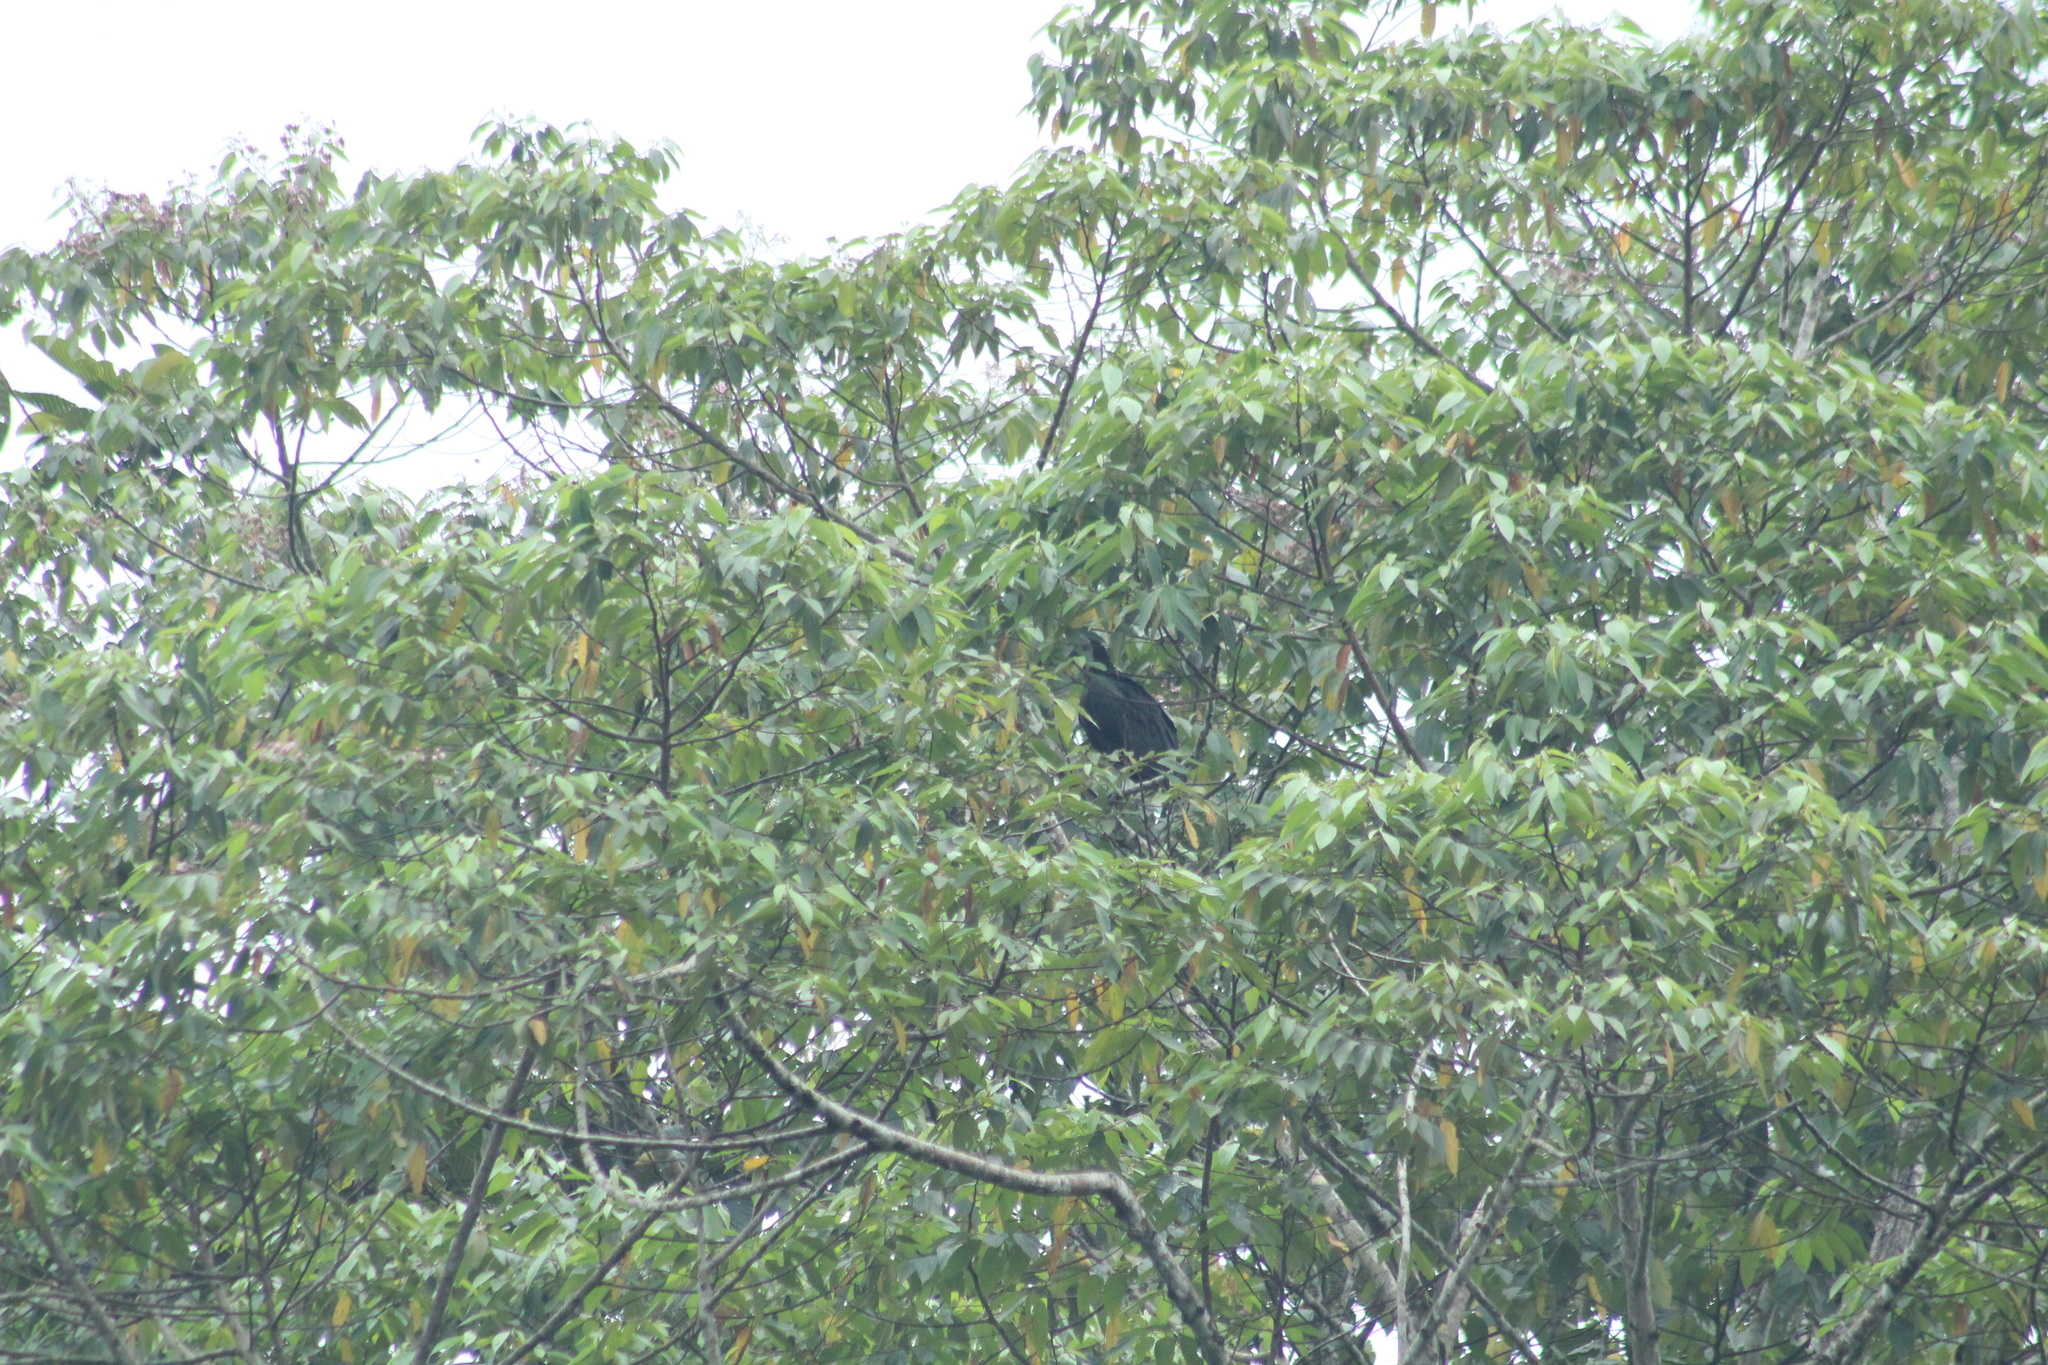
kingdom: Animalia
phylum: Chordata
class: Aves
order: Accipitriformes
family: Cathartidae
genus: Coragyps
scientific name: Coragyps atratus
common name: Black vulture
